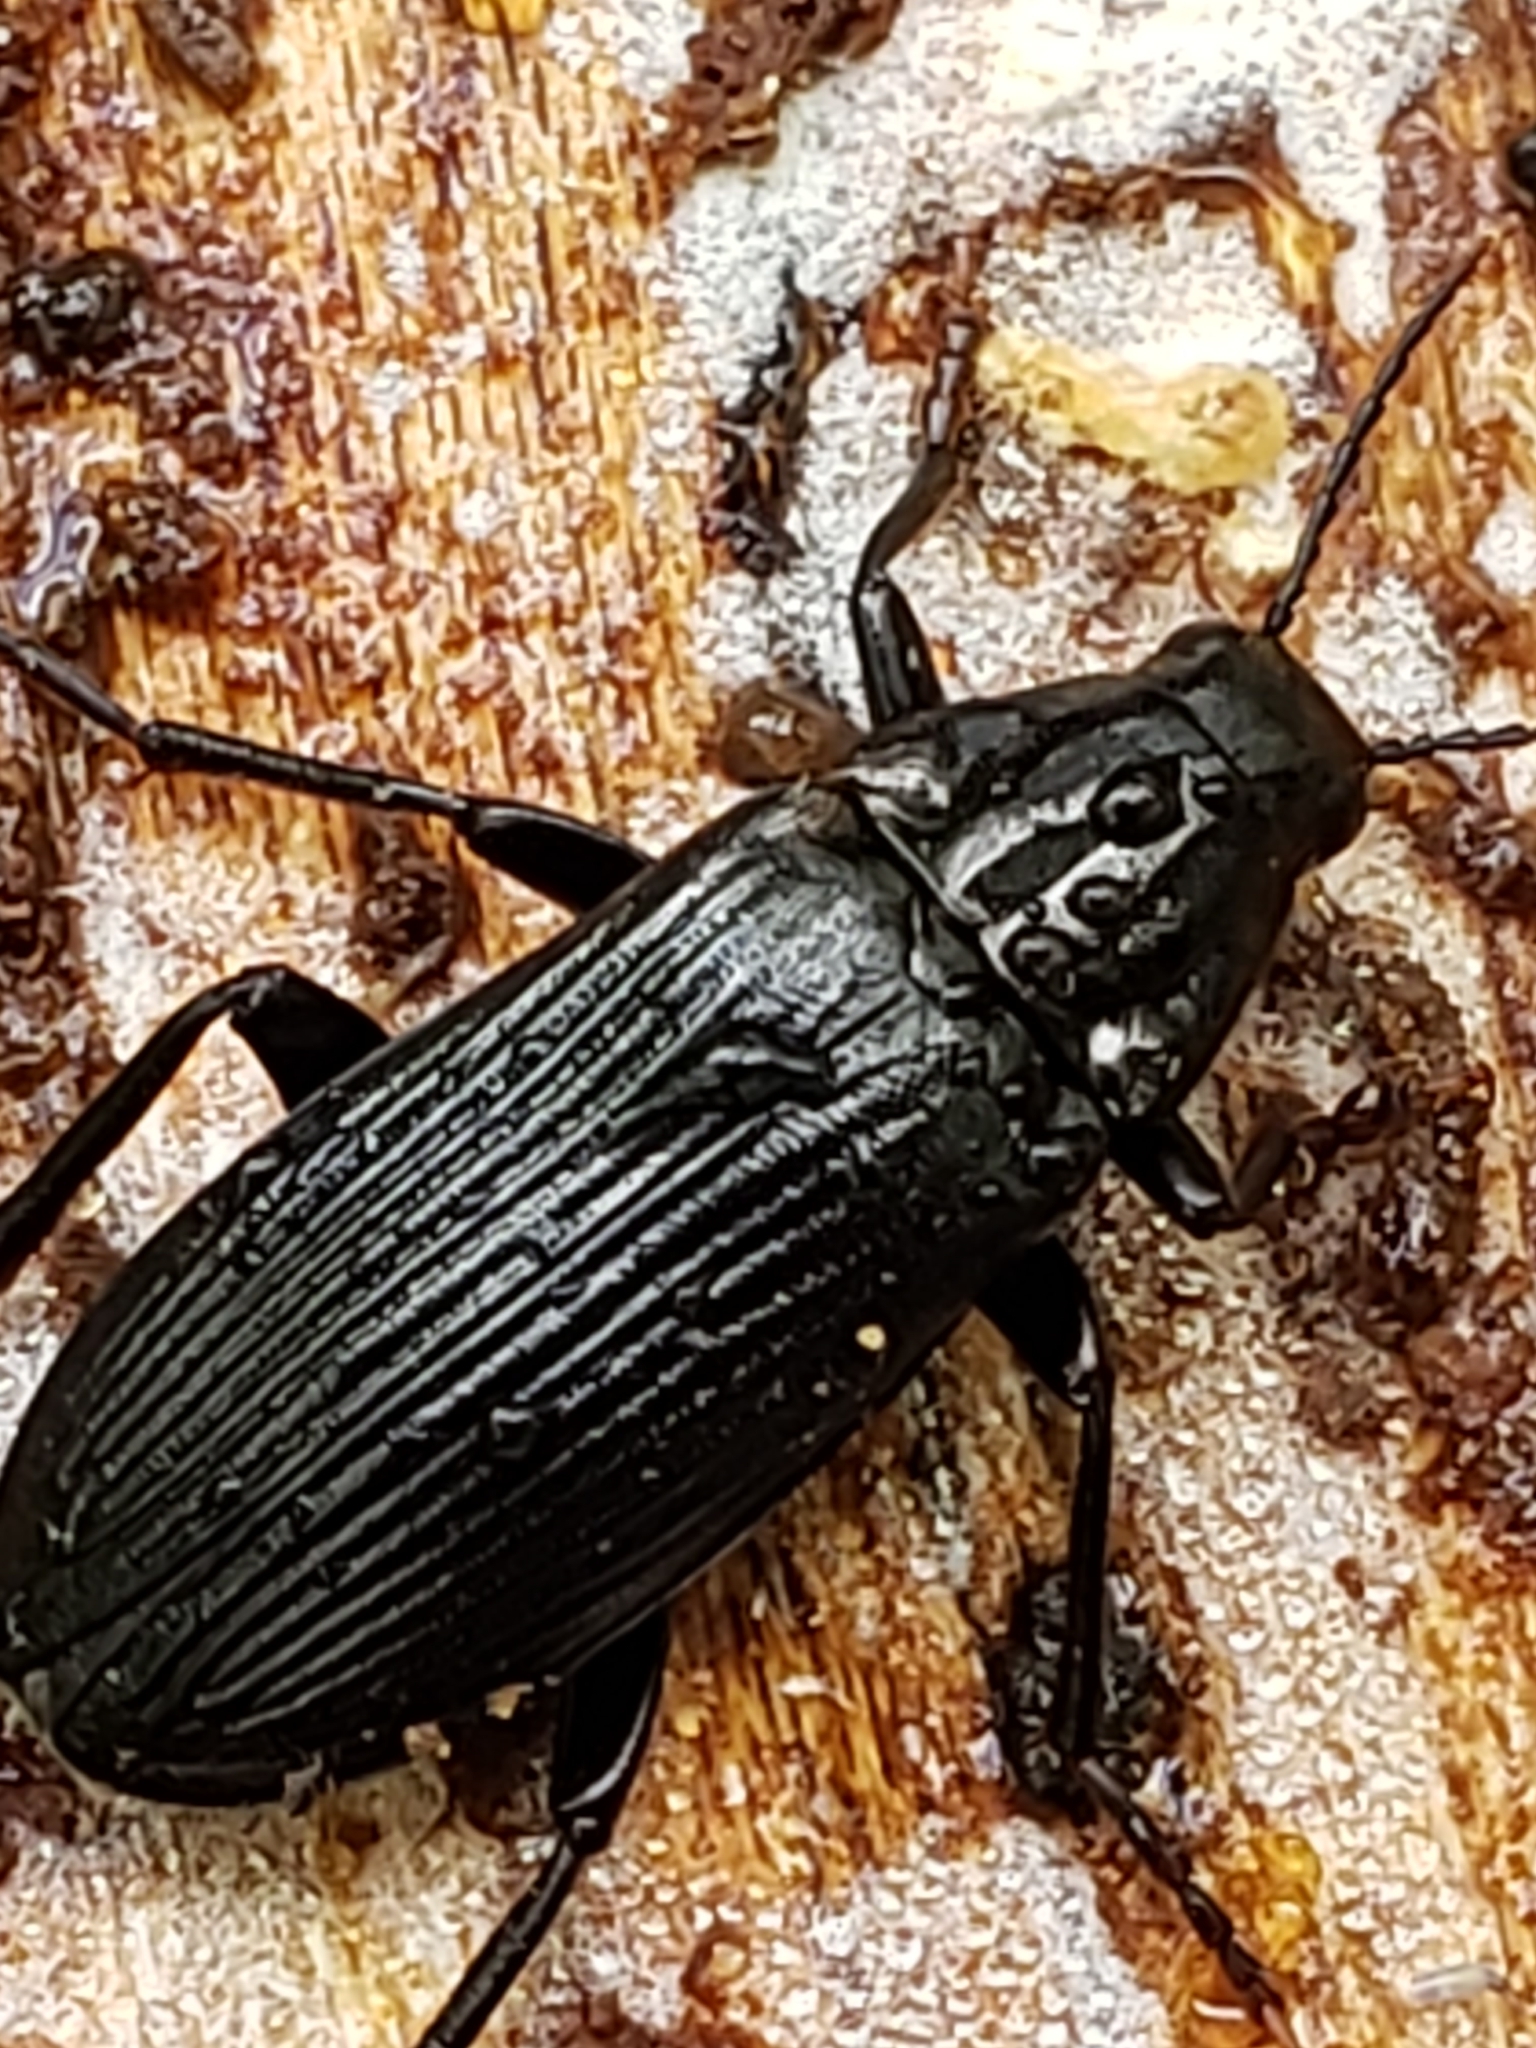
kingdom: Animalia
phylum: Arthropoda
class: Insecta
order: Coleoptera
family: Melandryidae
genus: Melandrya
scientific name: Melandrya striata
